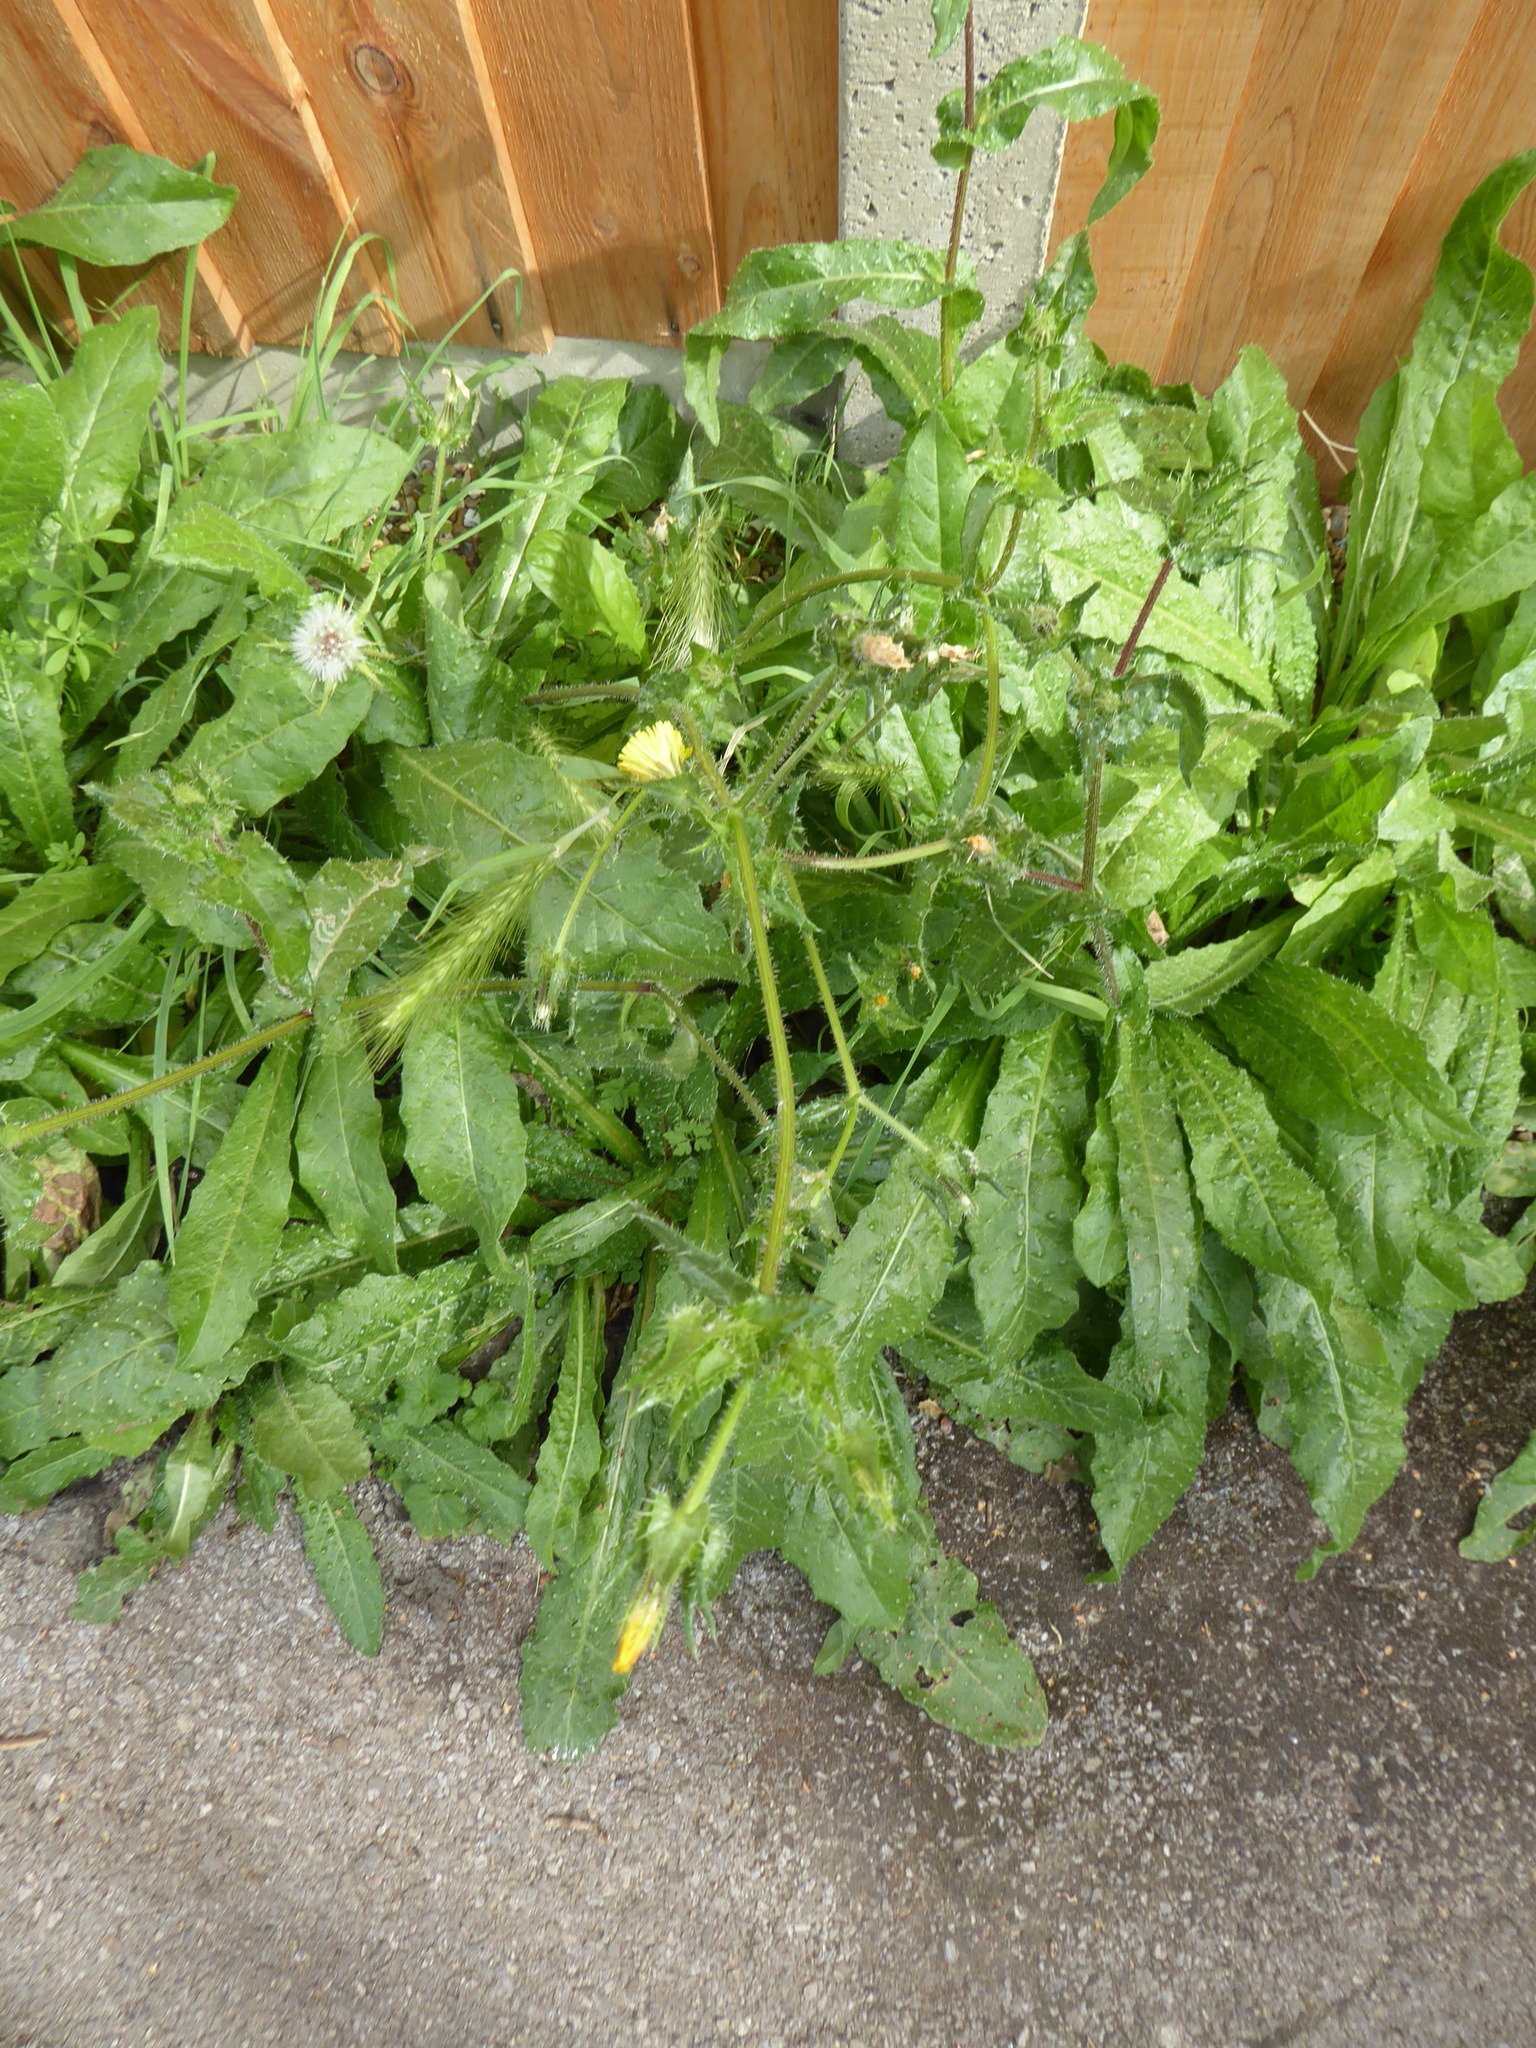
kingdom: Plantae
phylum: Tracheophyta
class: Magnoliopsida
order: Asterales
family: Asteraceae
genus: Helminthotheca
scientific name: Helminthotheca echioides
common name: Ox-tongue
